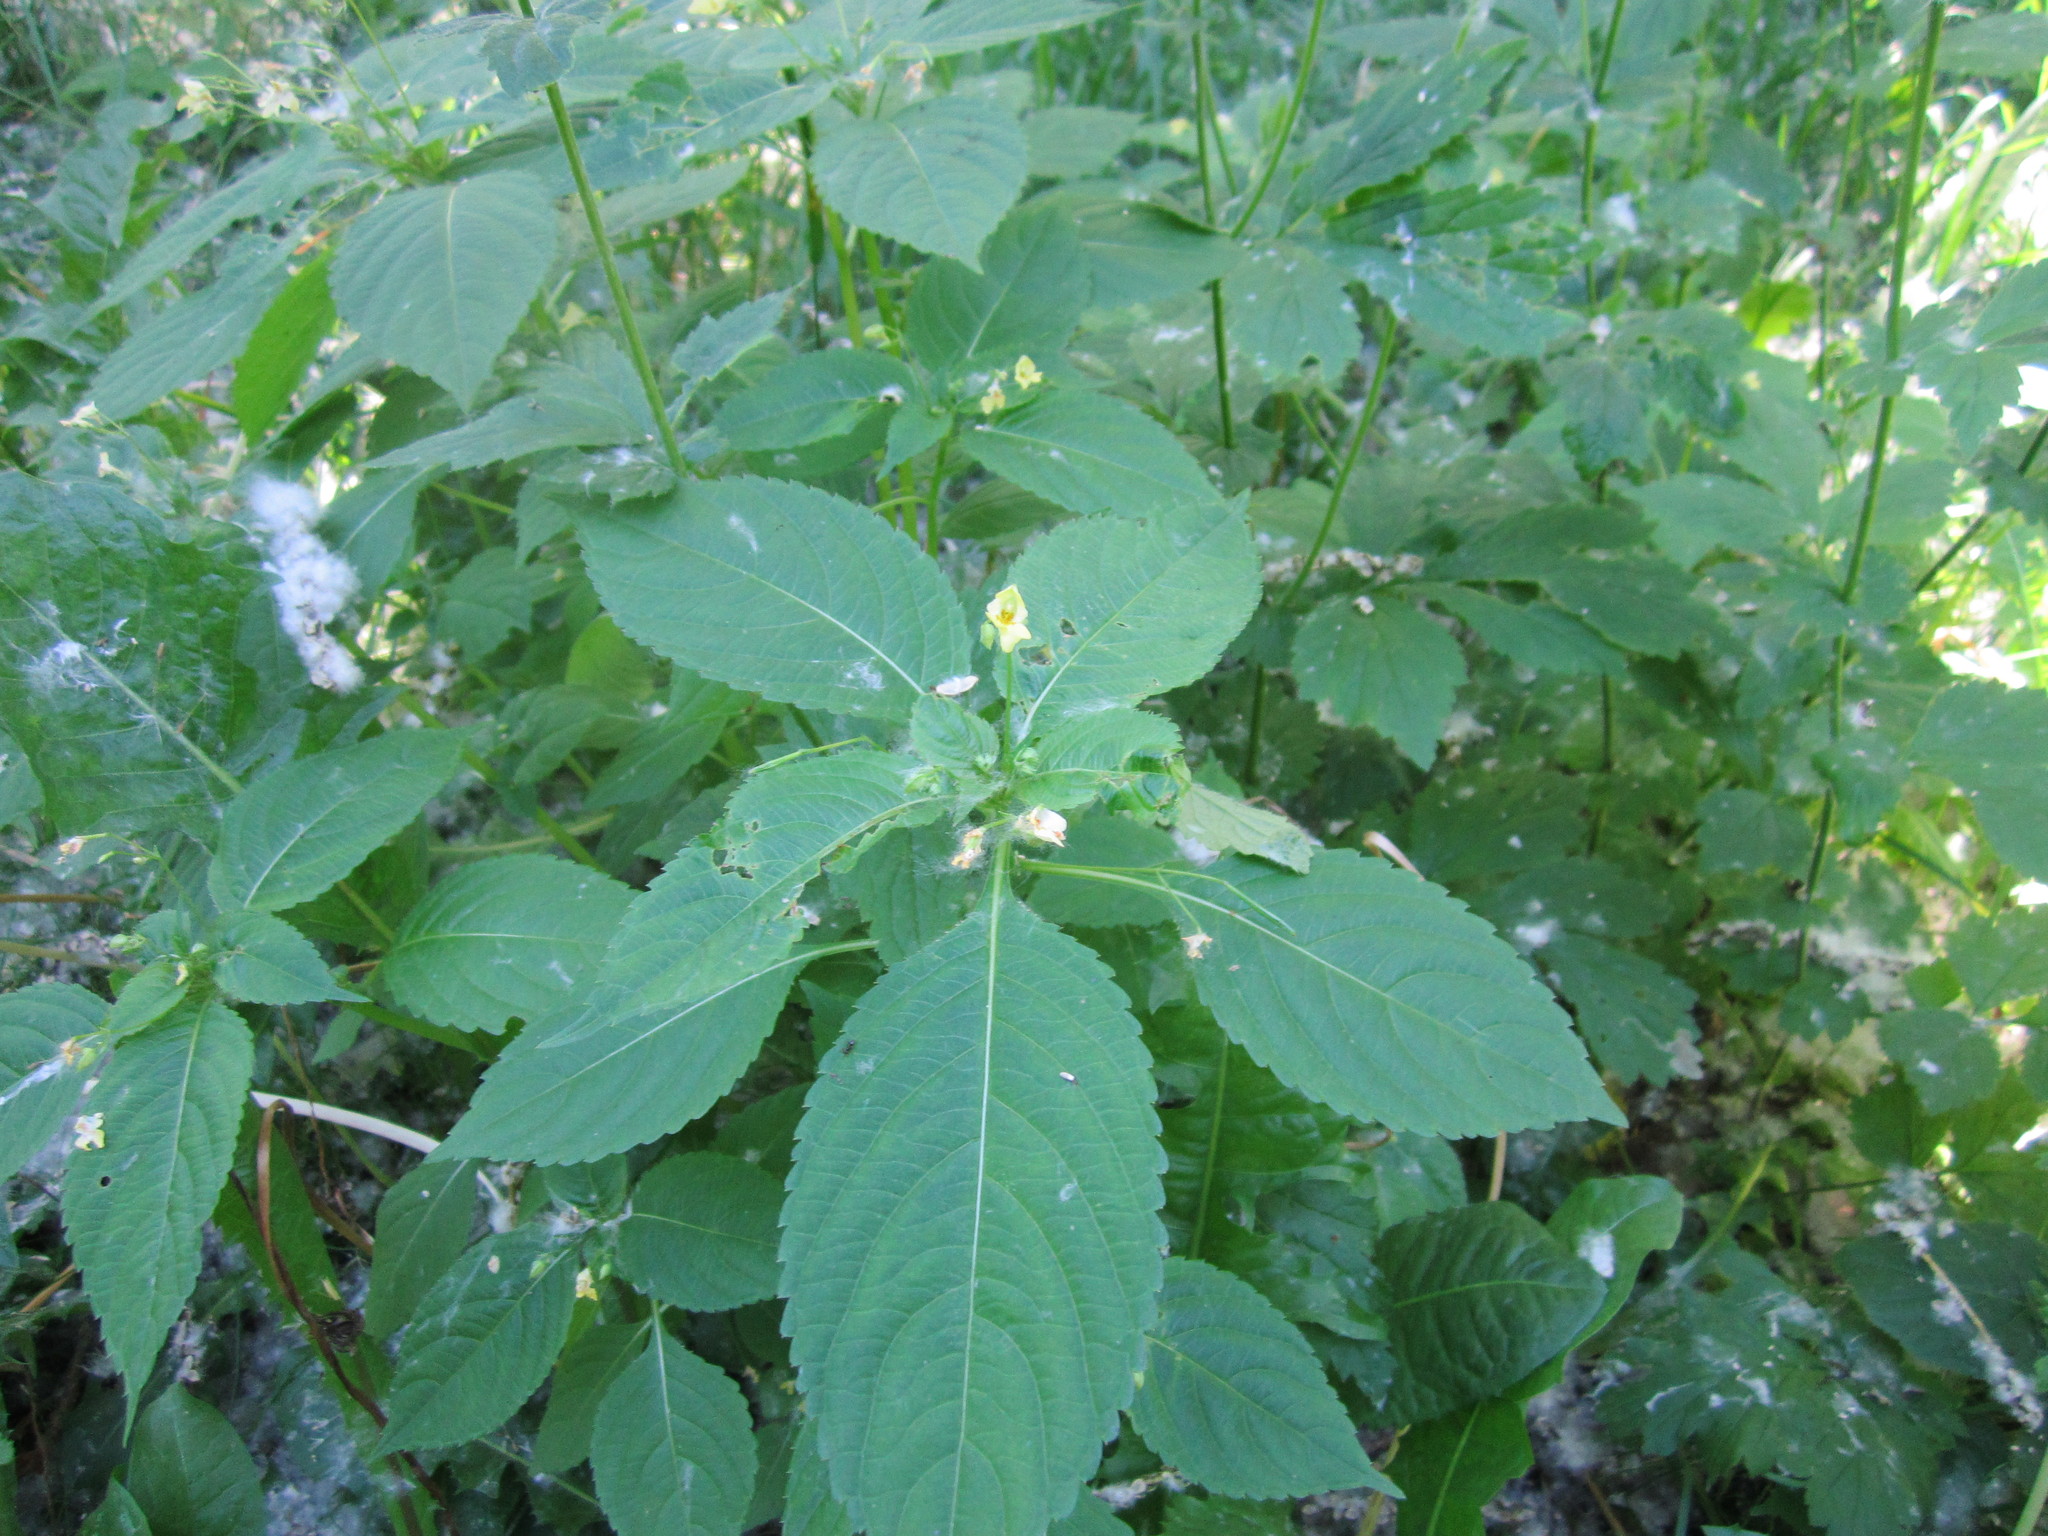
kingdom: Plantae
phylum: Tracheophyta
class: Magnoliopsida
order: Ericales
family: Balsaminaceae
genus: Impatiens
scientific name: Impatiens parviflora
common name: Small balsam
